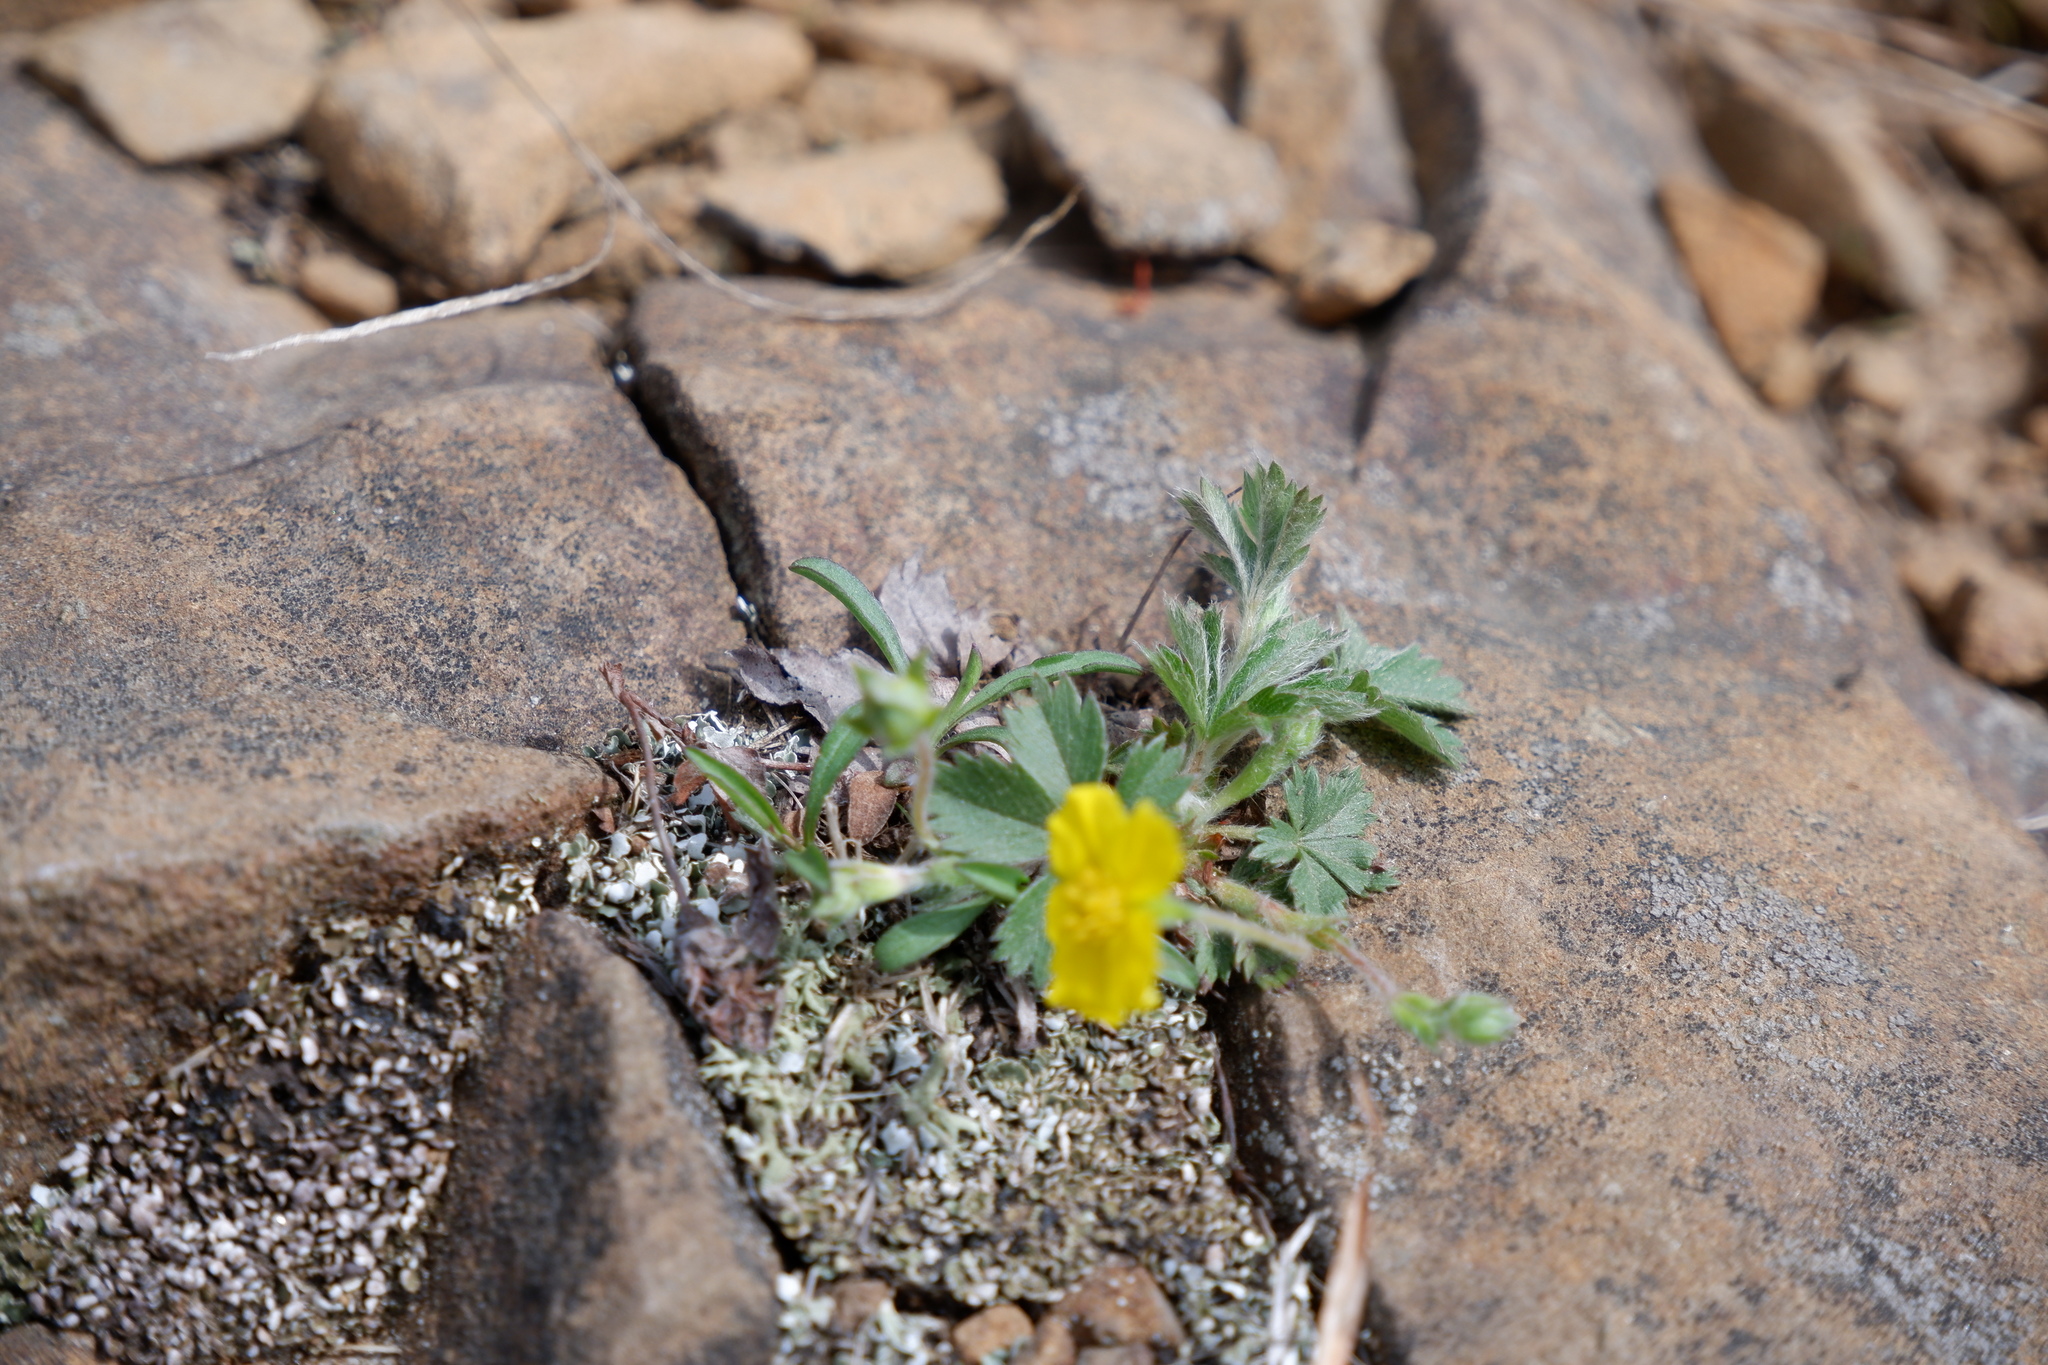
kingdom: Plantae
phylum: Tracheophyta
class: Magnoliopsida
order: Rosales
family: Rosaceae
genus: Potentilla
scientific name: Potentilla argentea
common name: Hoary cinquefoil
